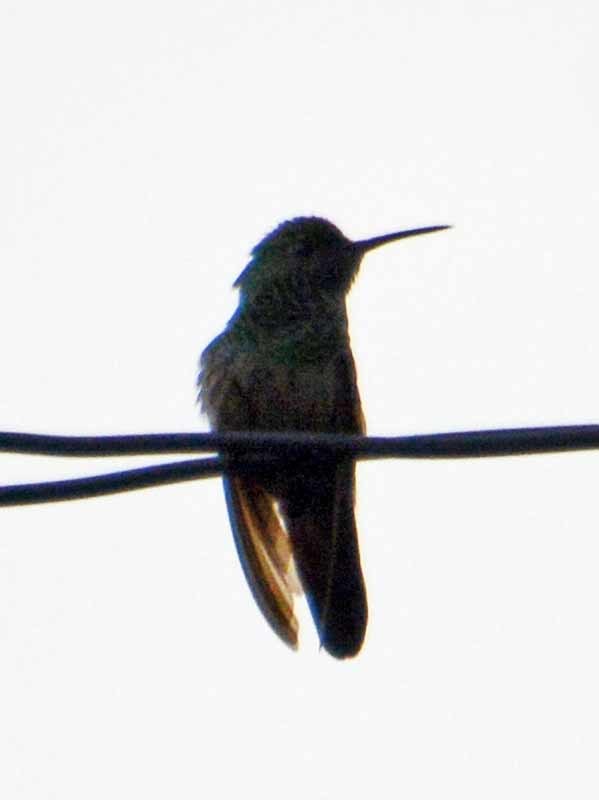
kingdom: Animalia
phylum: Chordata
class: Aves
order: Apodiformes
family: Trochilidae
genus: Saucerottia
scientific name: Saucerottia beryllina
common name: Berylline hummingbird
